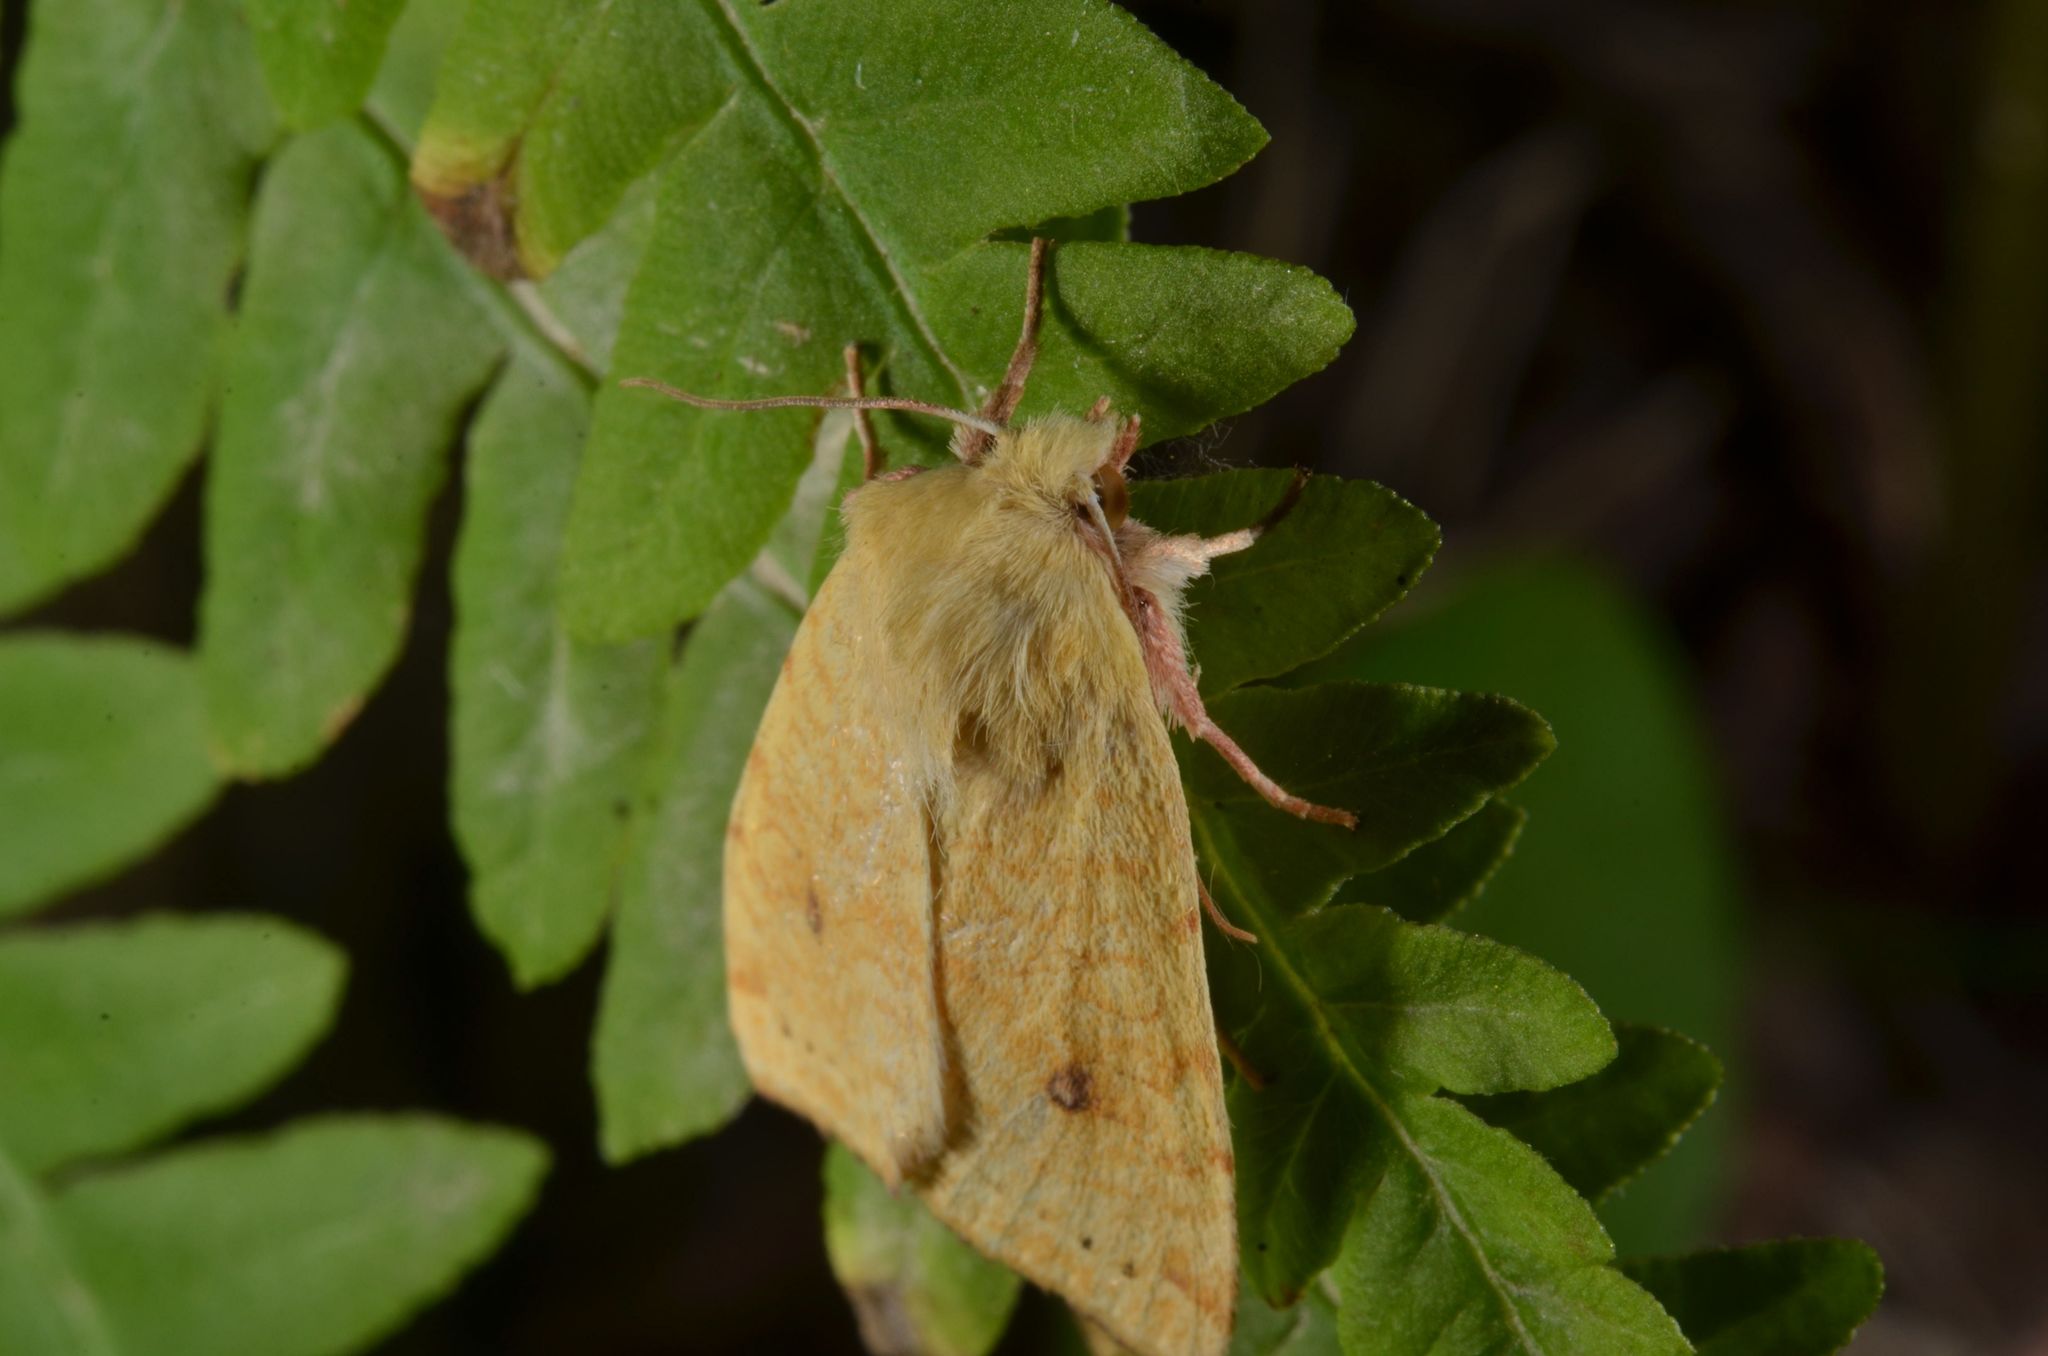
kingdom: Animalia
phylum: Arthropoda
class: Insecta
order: Lepidoptera
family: Noctuidae
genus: Xanthia
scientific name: Xanthia icteritia
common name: The sallow
